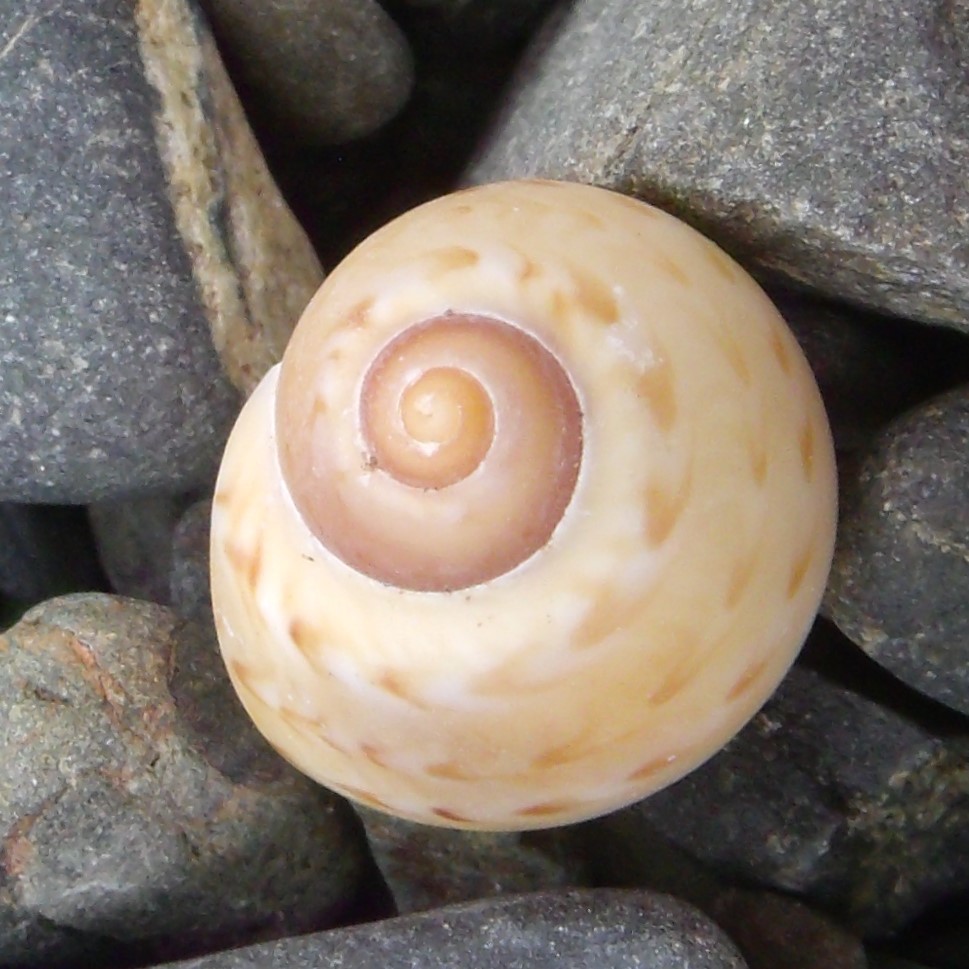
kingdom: Animalia
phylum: Mollusca
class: Gastropoda
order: Littorinimorpha
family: Naticidae
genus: Tanea
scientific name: Tanea zelandica
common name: New zealand moonsnail
